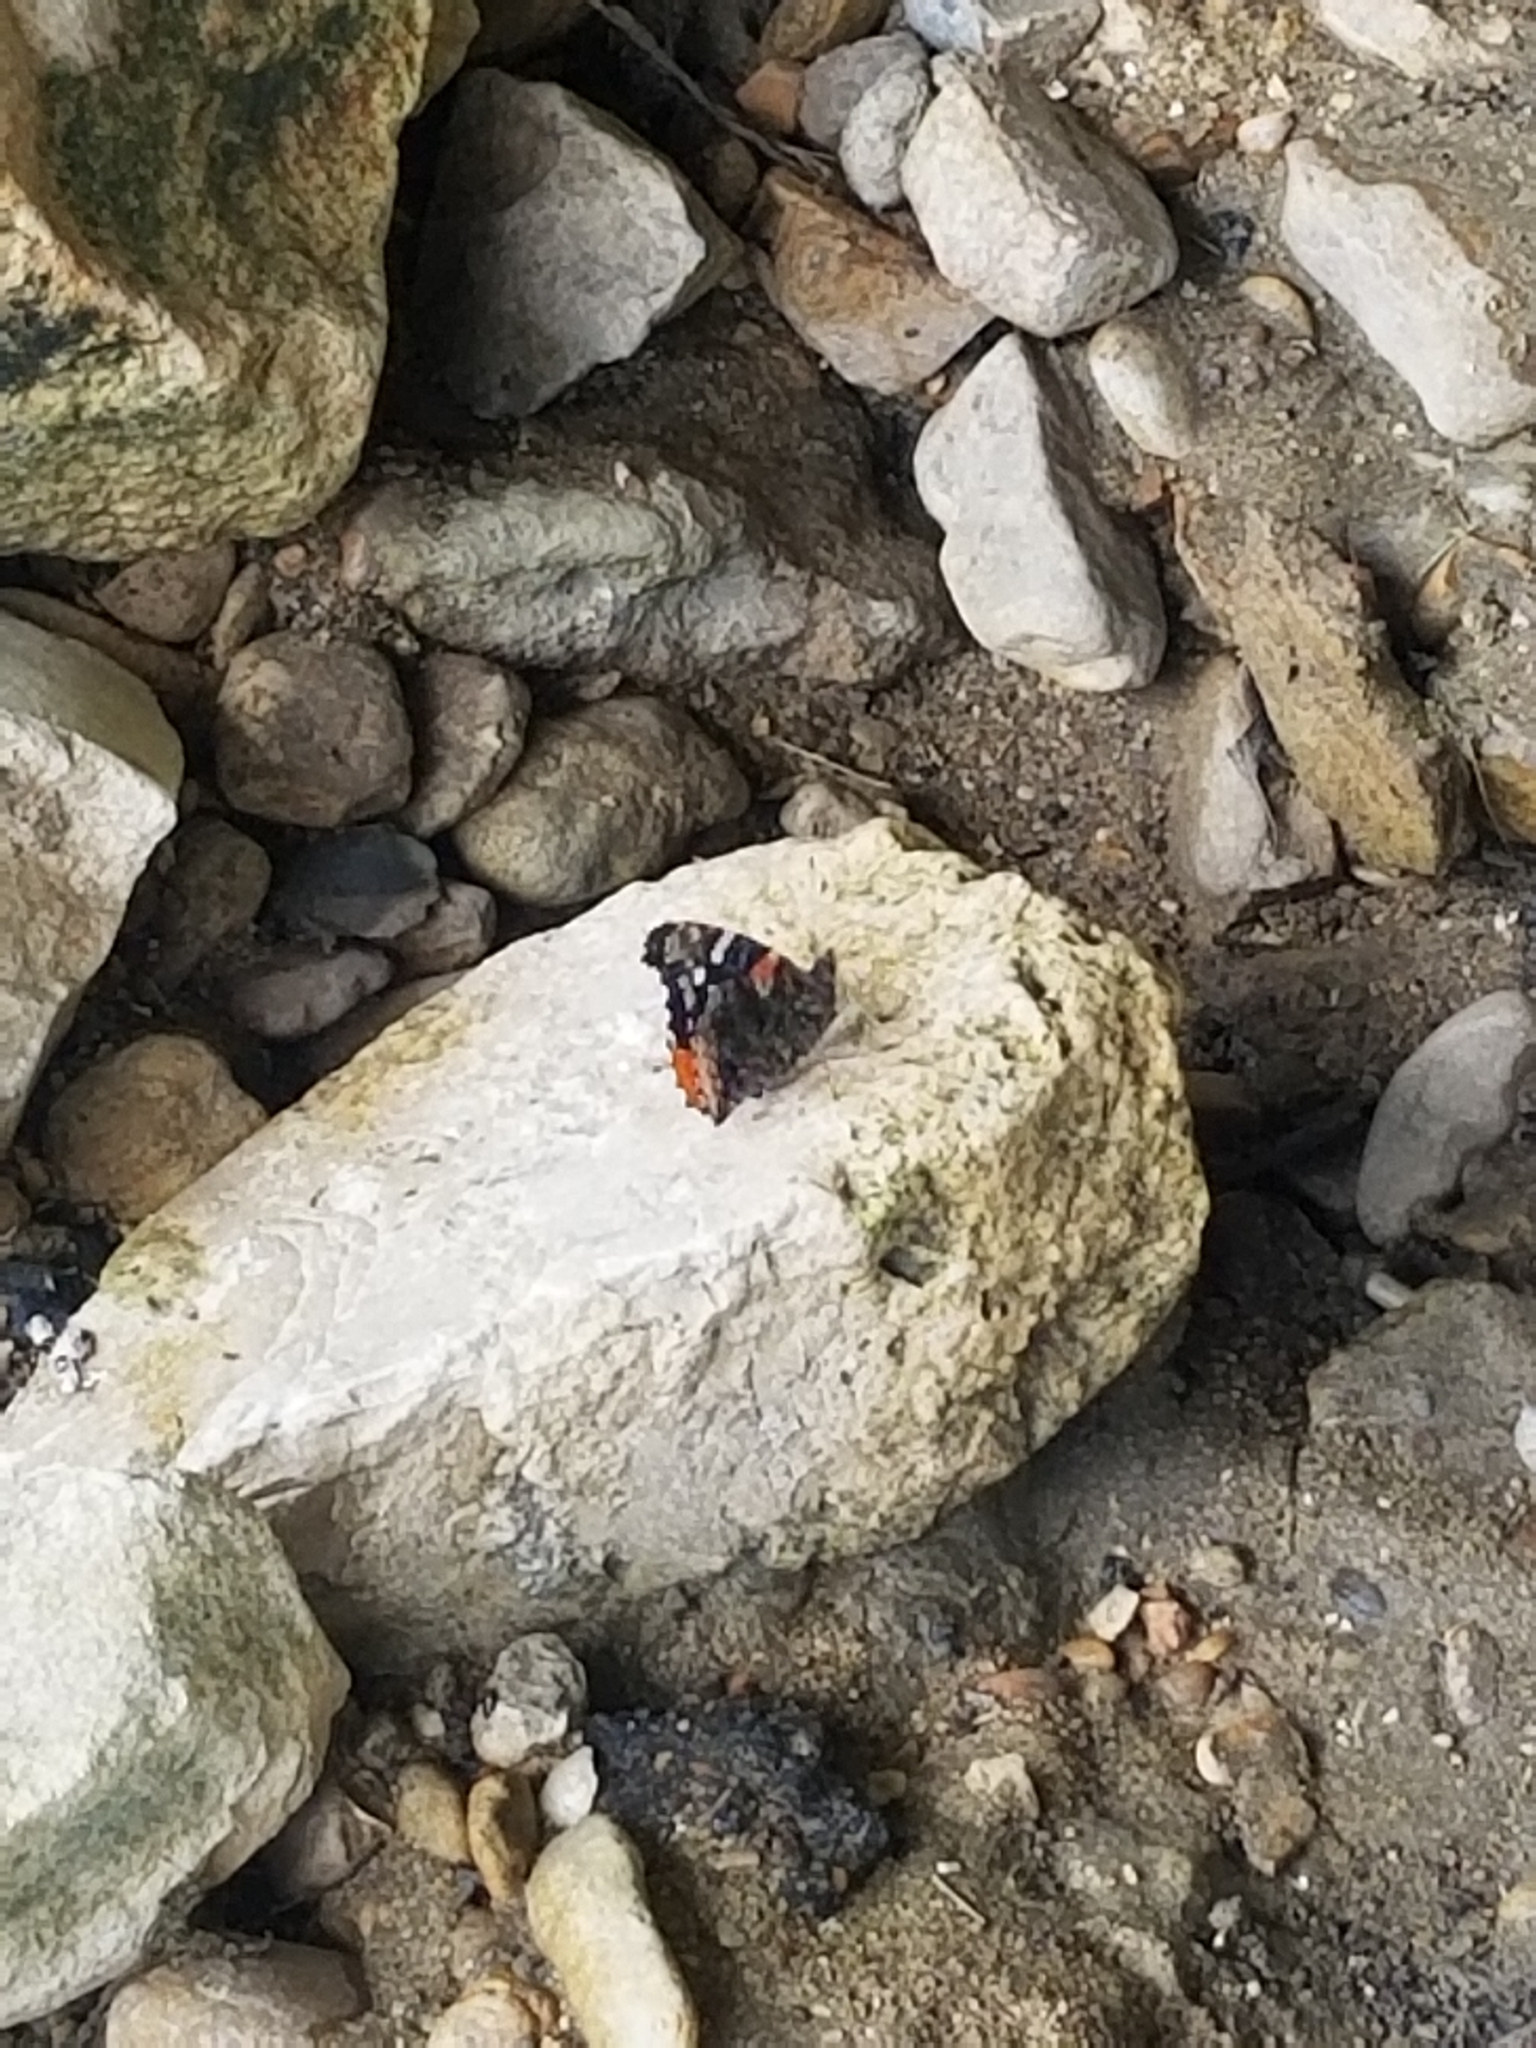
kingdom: Animalia
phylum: Arthropoda
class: Insecta
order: Lepidoptera
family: Nymphalidae
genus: Vanessa
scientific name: Vanessa atalanta
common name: Red admiral
